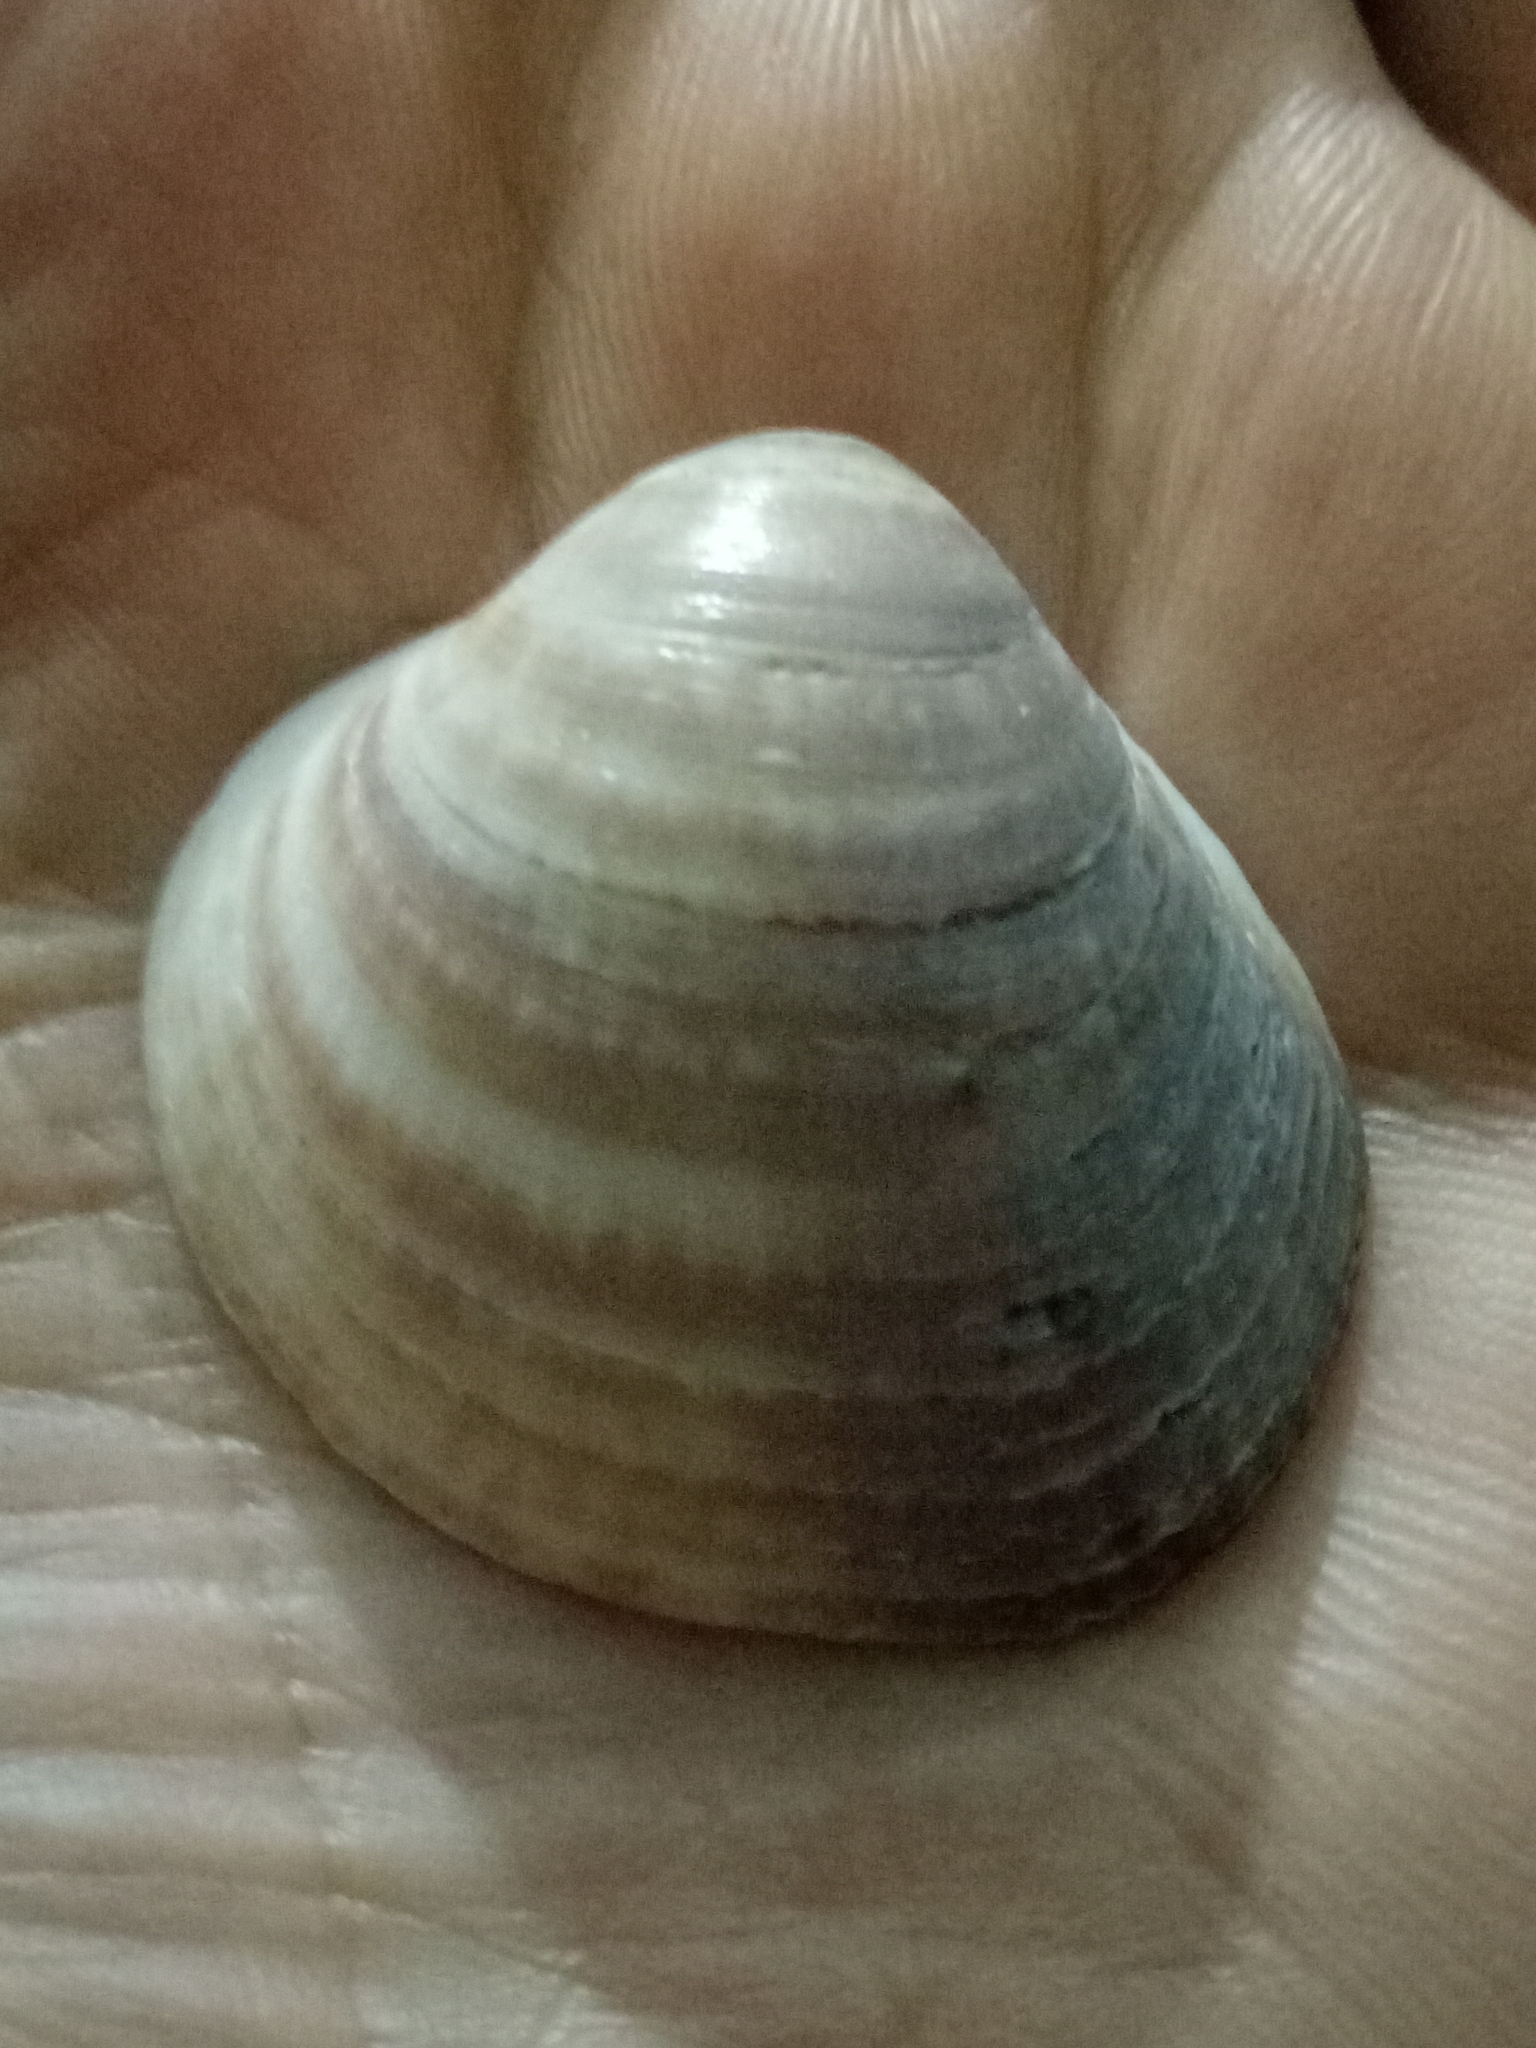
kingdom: Animalia
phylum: Mollusca
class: Bivalvia
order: Arcida
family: Glycymerididae
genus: Glycymeris
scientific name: Glycymeris glycymeris
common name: Dog-cockle
